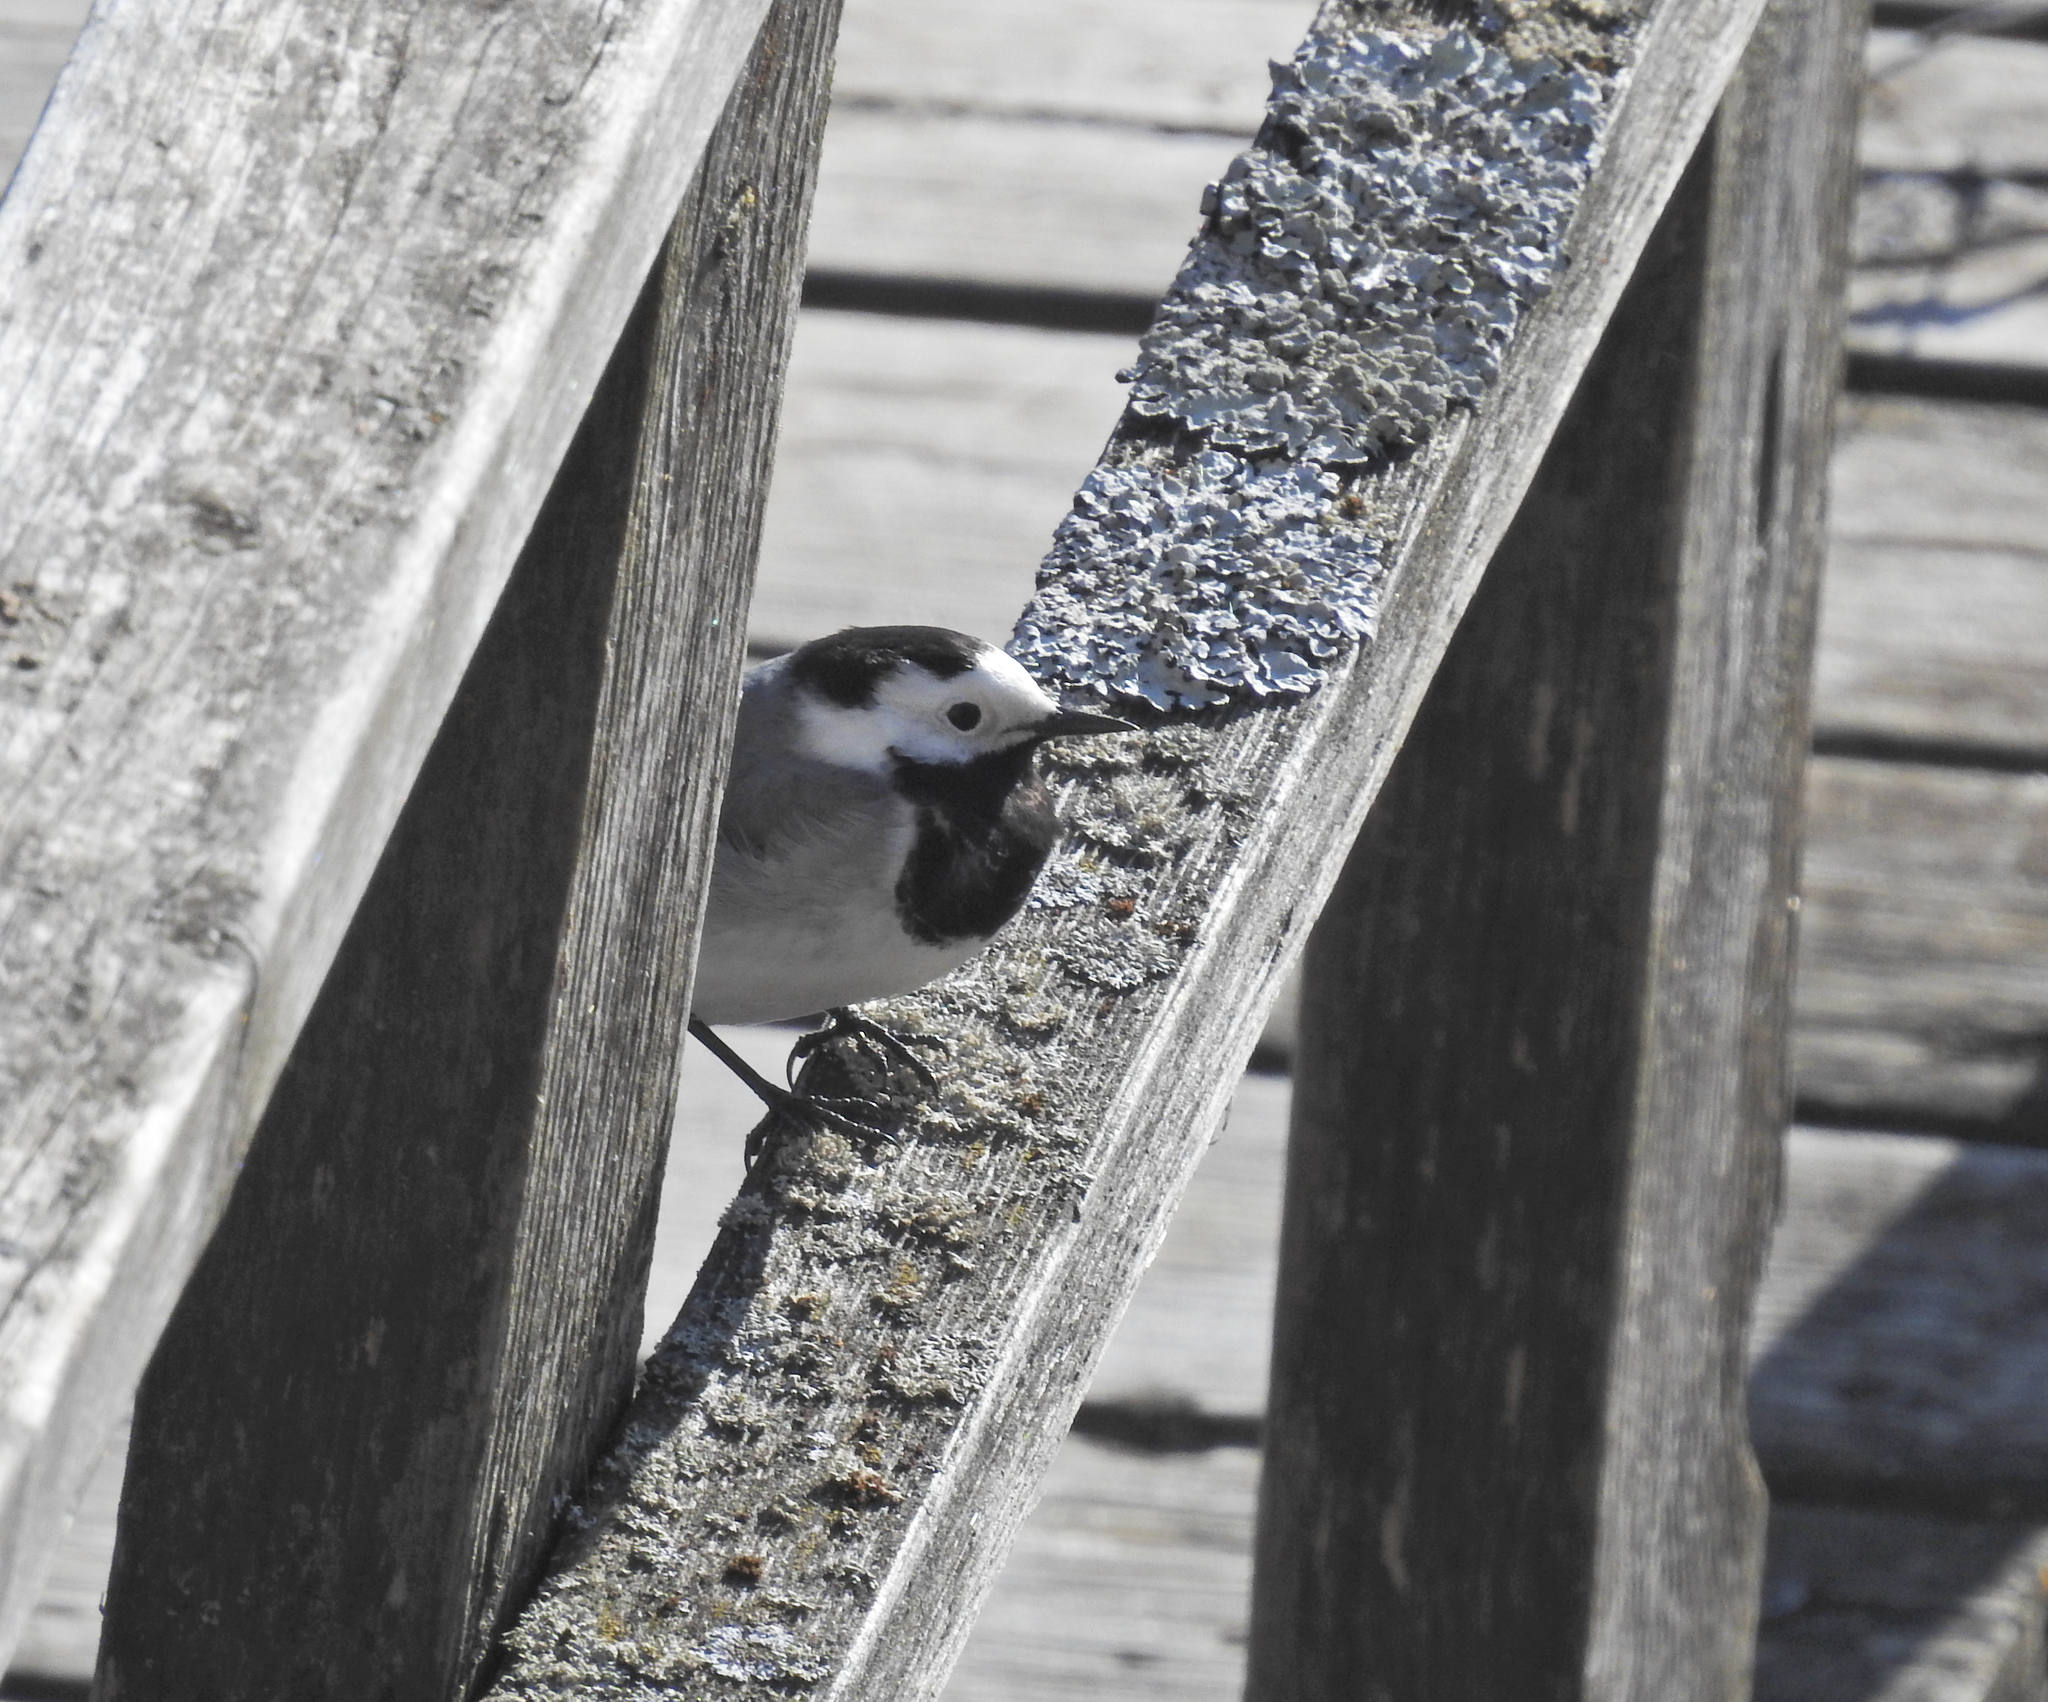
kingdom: Animalia
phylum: Chordata
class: Aves
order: Passeriformes
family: Motacillidae
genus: Motacilla
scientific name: Motacilla alba
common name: White wagtail
